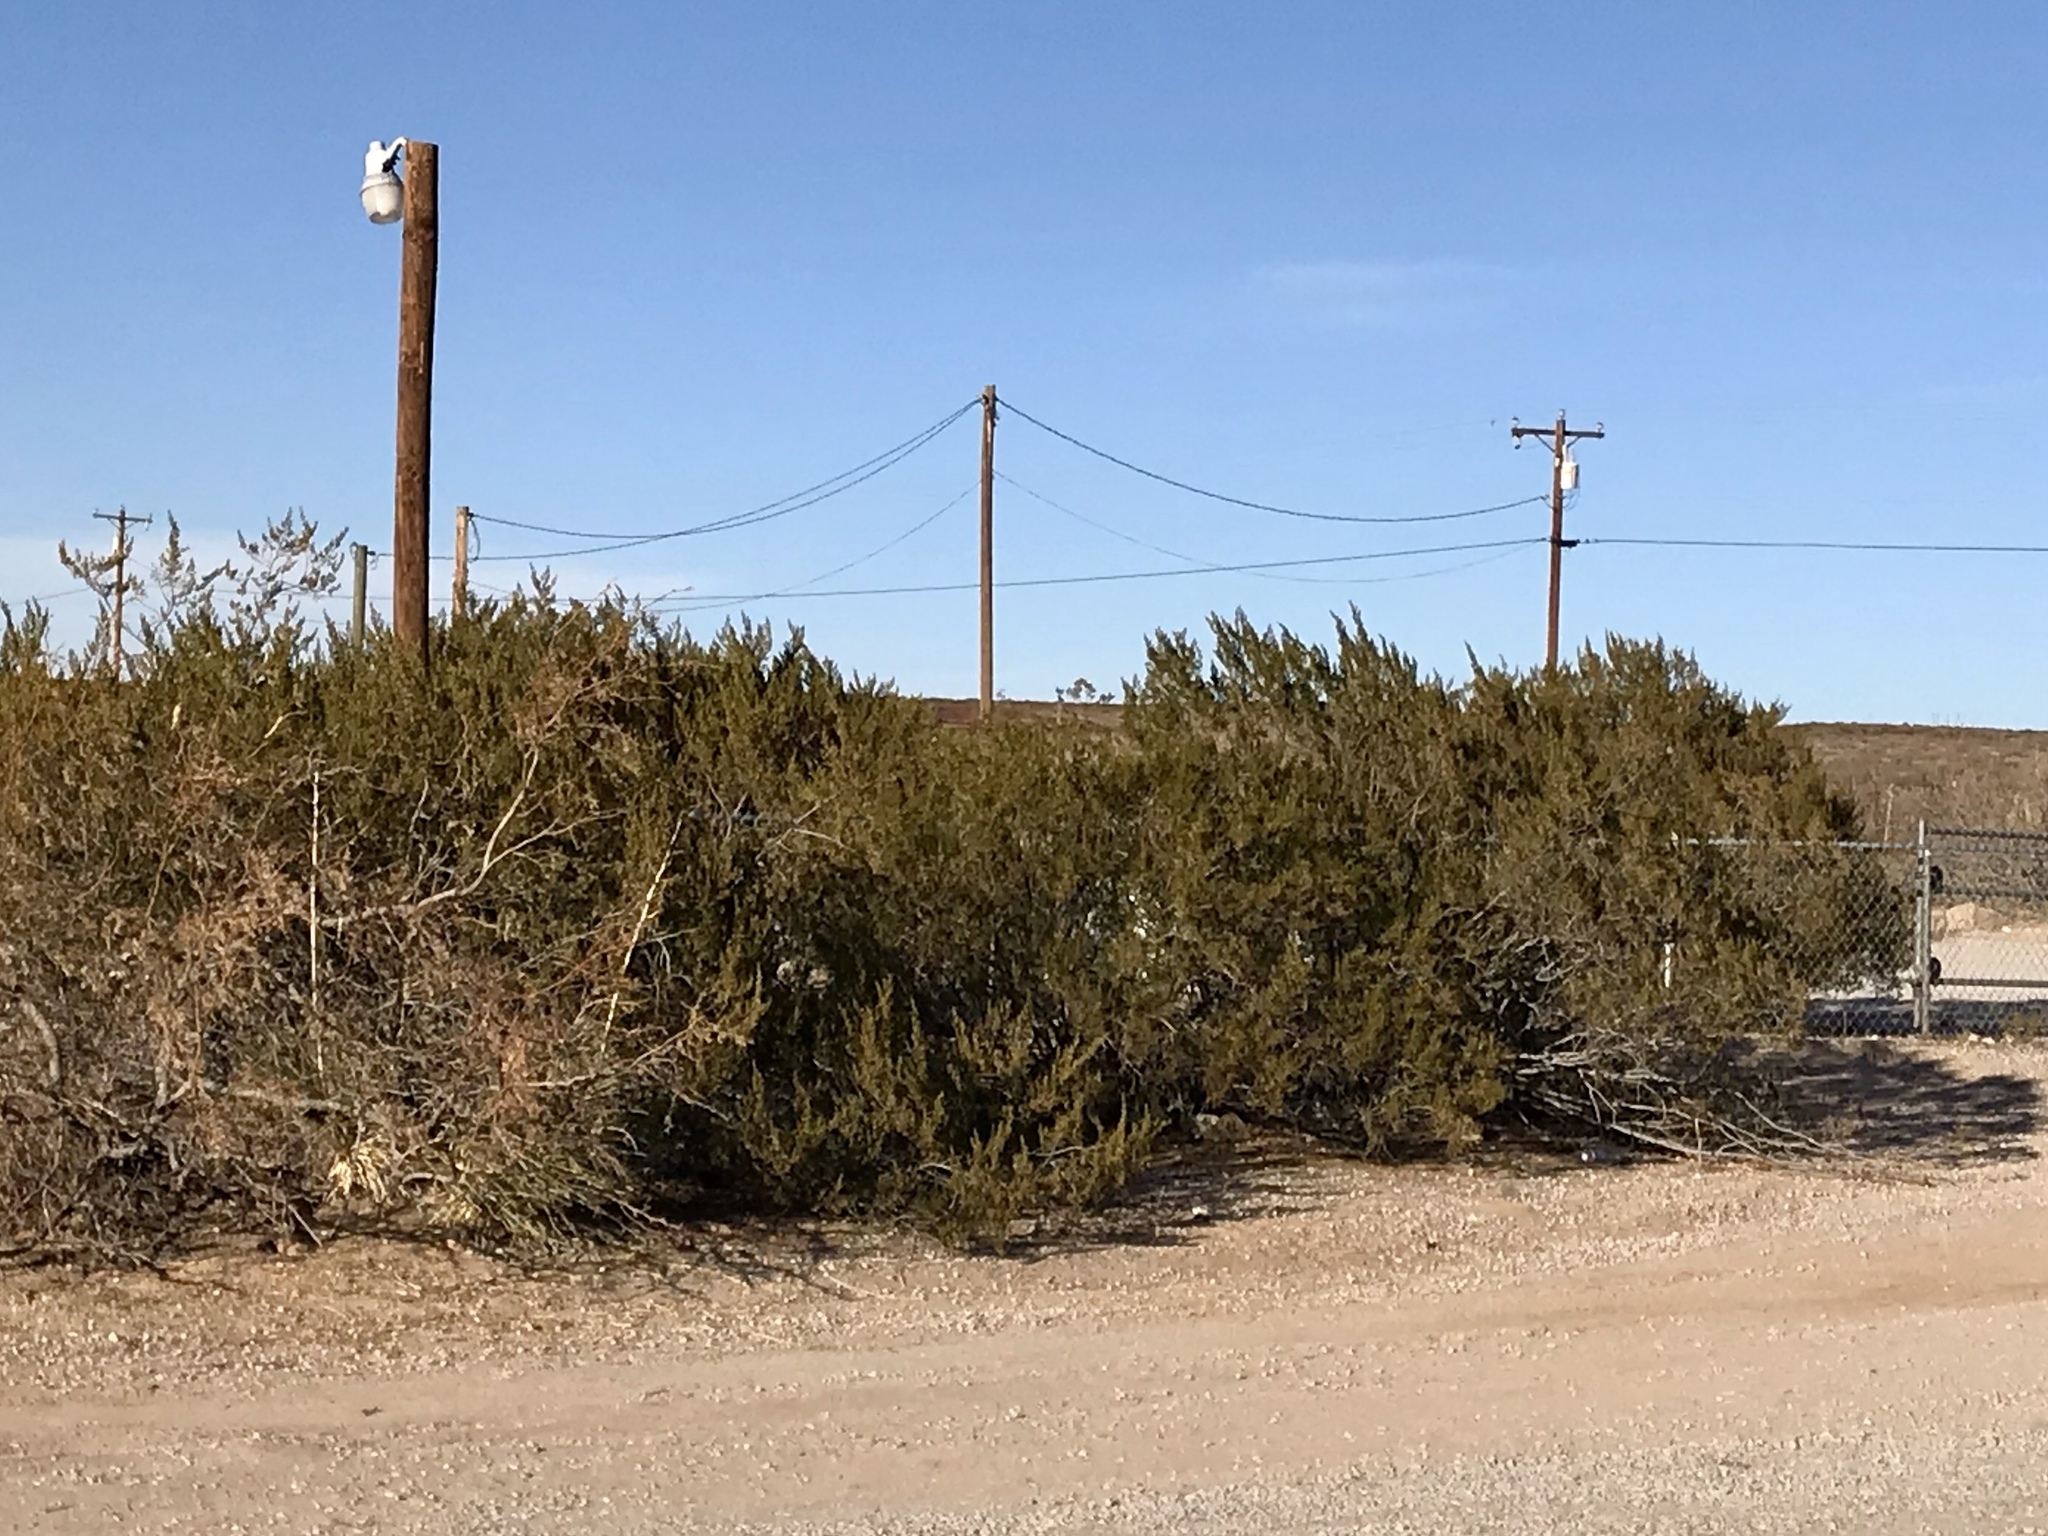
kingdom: Plantae
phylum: Tracheophyta
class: Magnoliopsida
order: Zygophyllales
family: Zygophyllaceae
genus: Larrea
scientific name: Larrea tridentata
